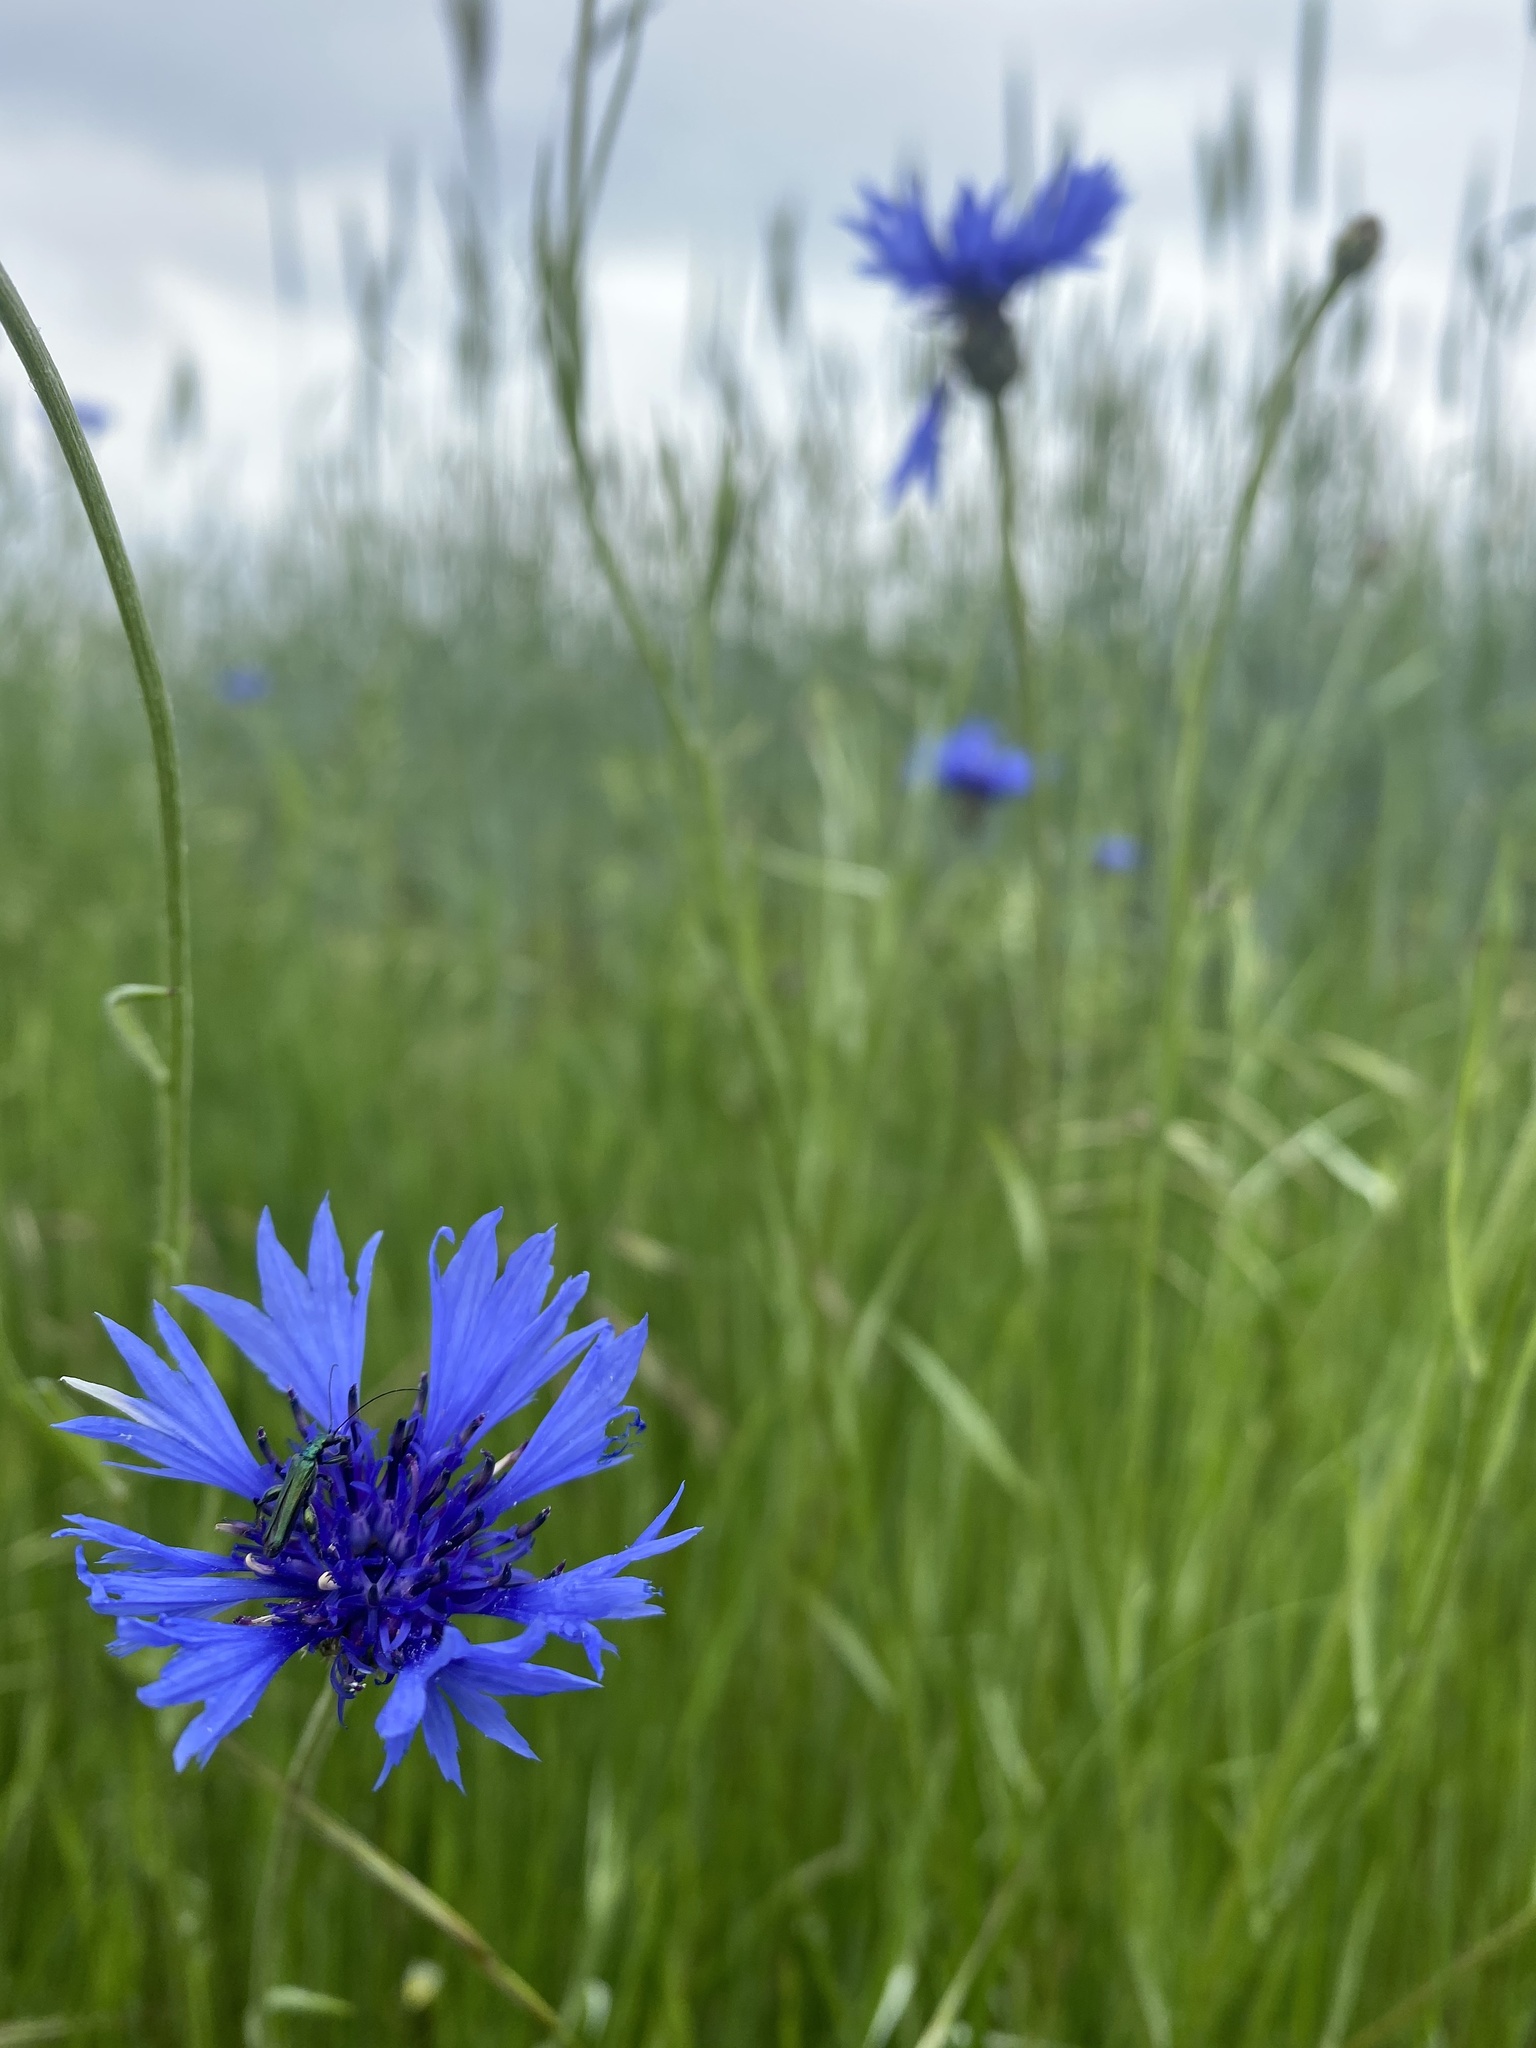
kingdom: Plantae
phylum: Tracheophyta
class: Magnoliopsida
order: Asterales
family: Asteraceae
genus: Centaurea
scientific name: Centaurea cyanus
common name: Cornflower
